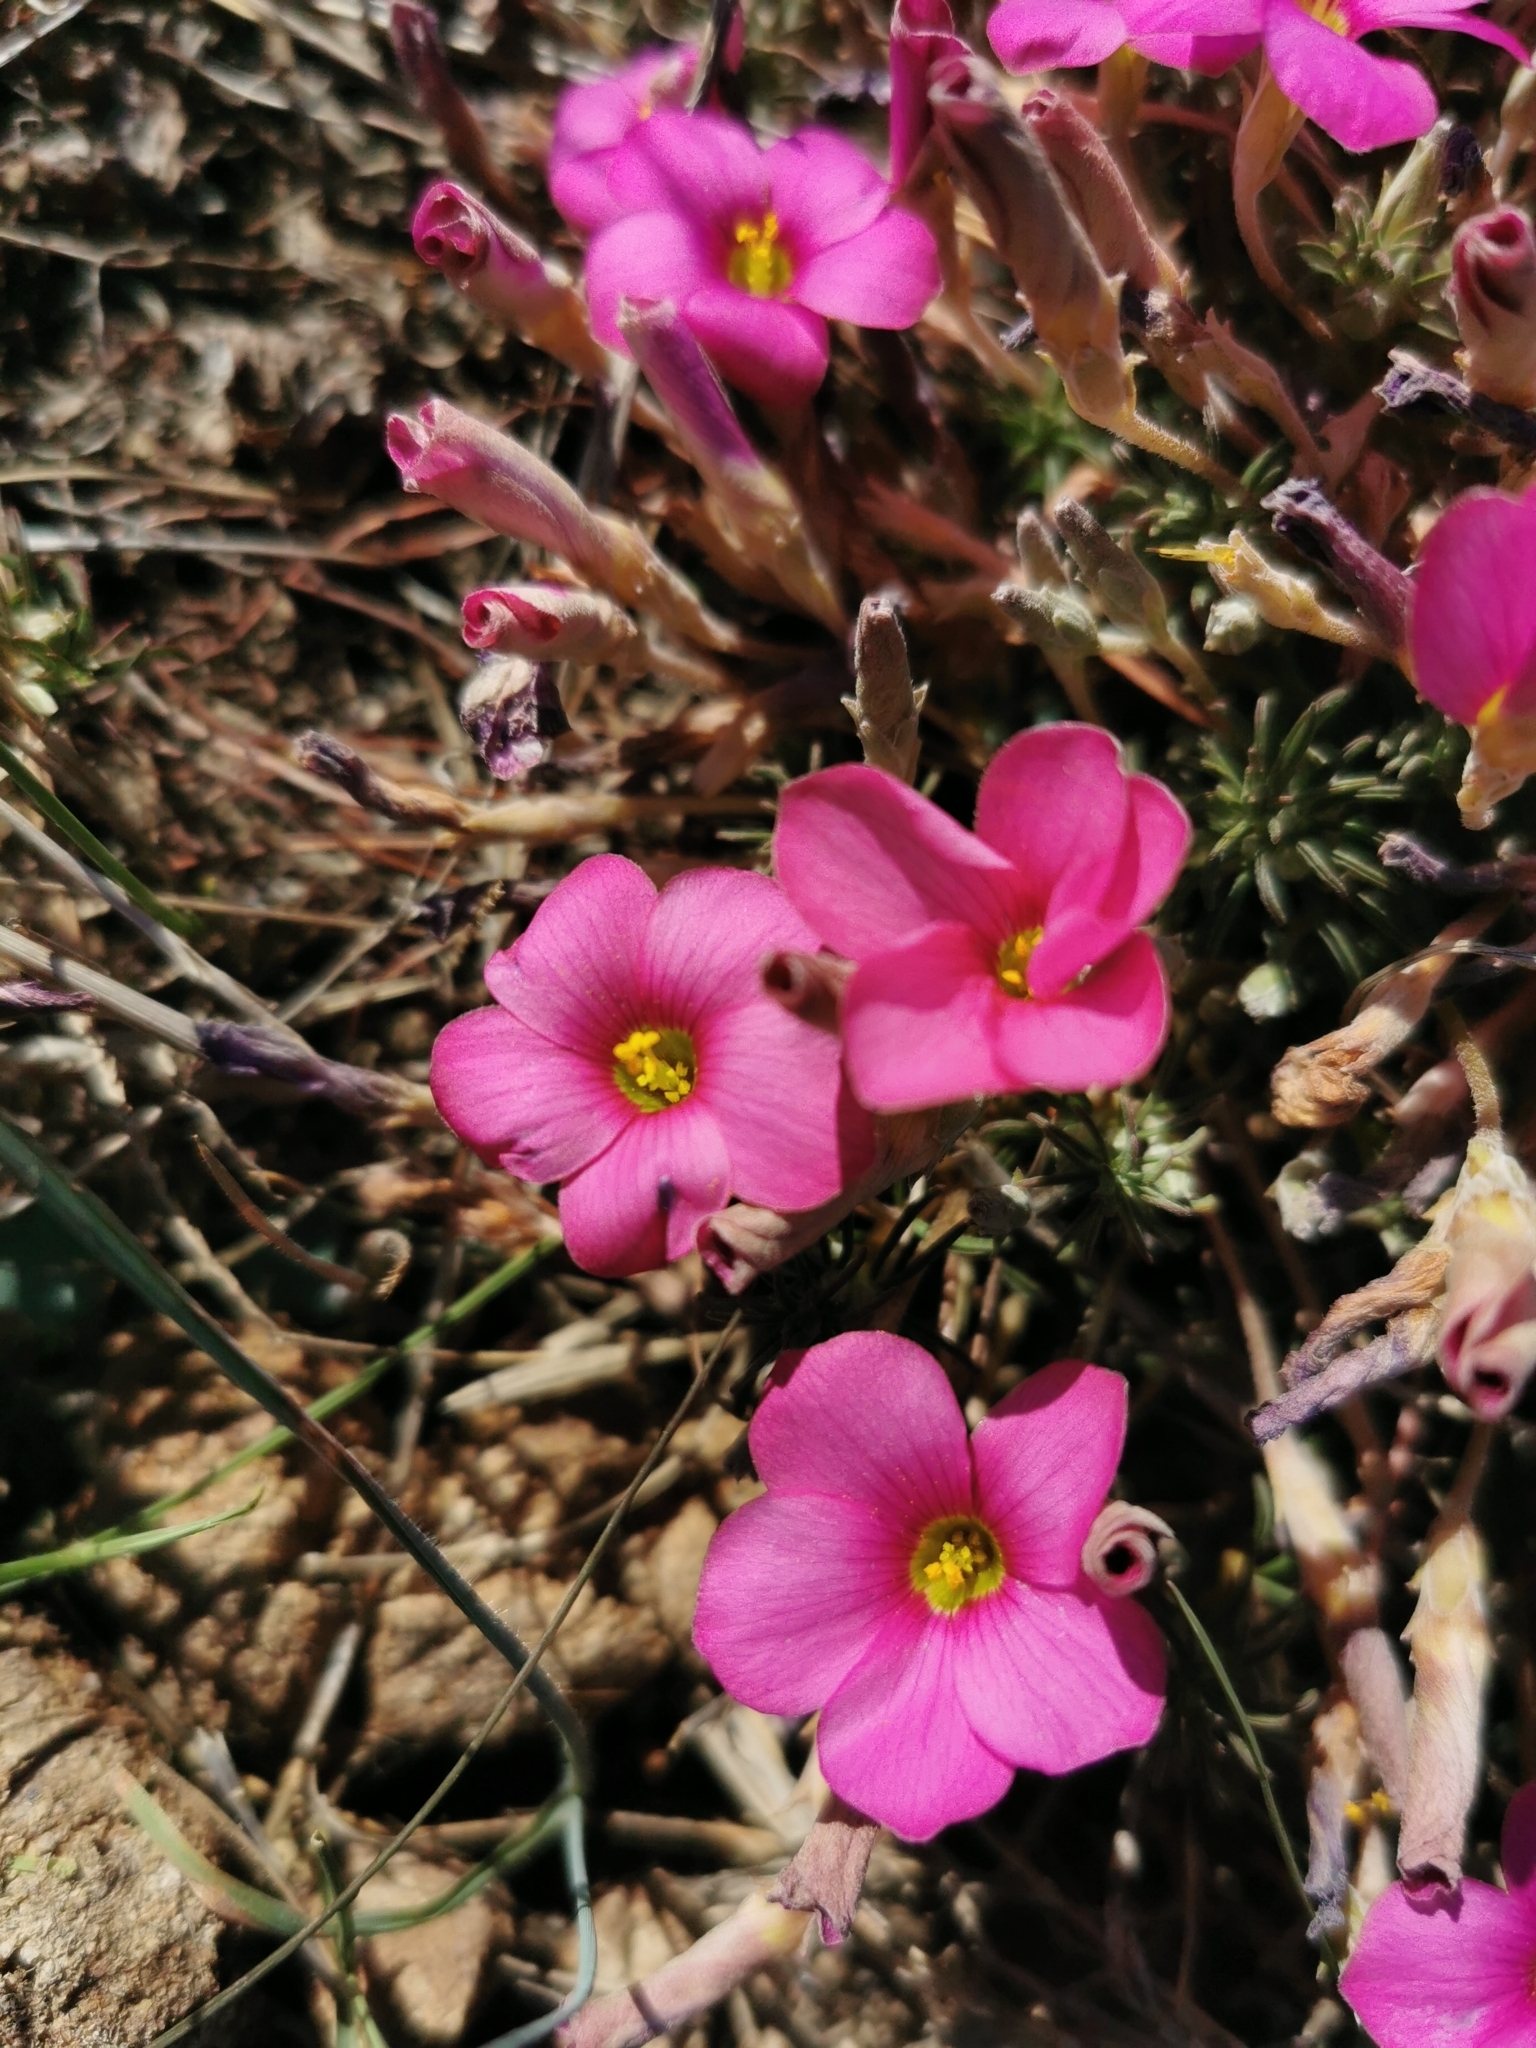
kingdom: Plantae
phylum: Tracheophyta
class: Magnoliopsida
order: Oxalidales
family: Oxalidaceae
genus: Oxalis
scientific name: Oxalis hirta
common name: Tropical woodsorrel
